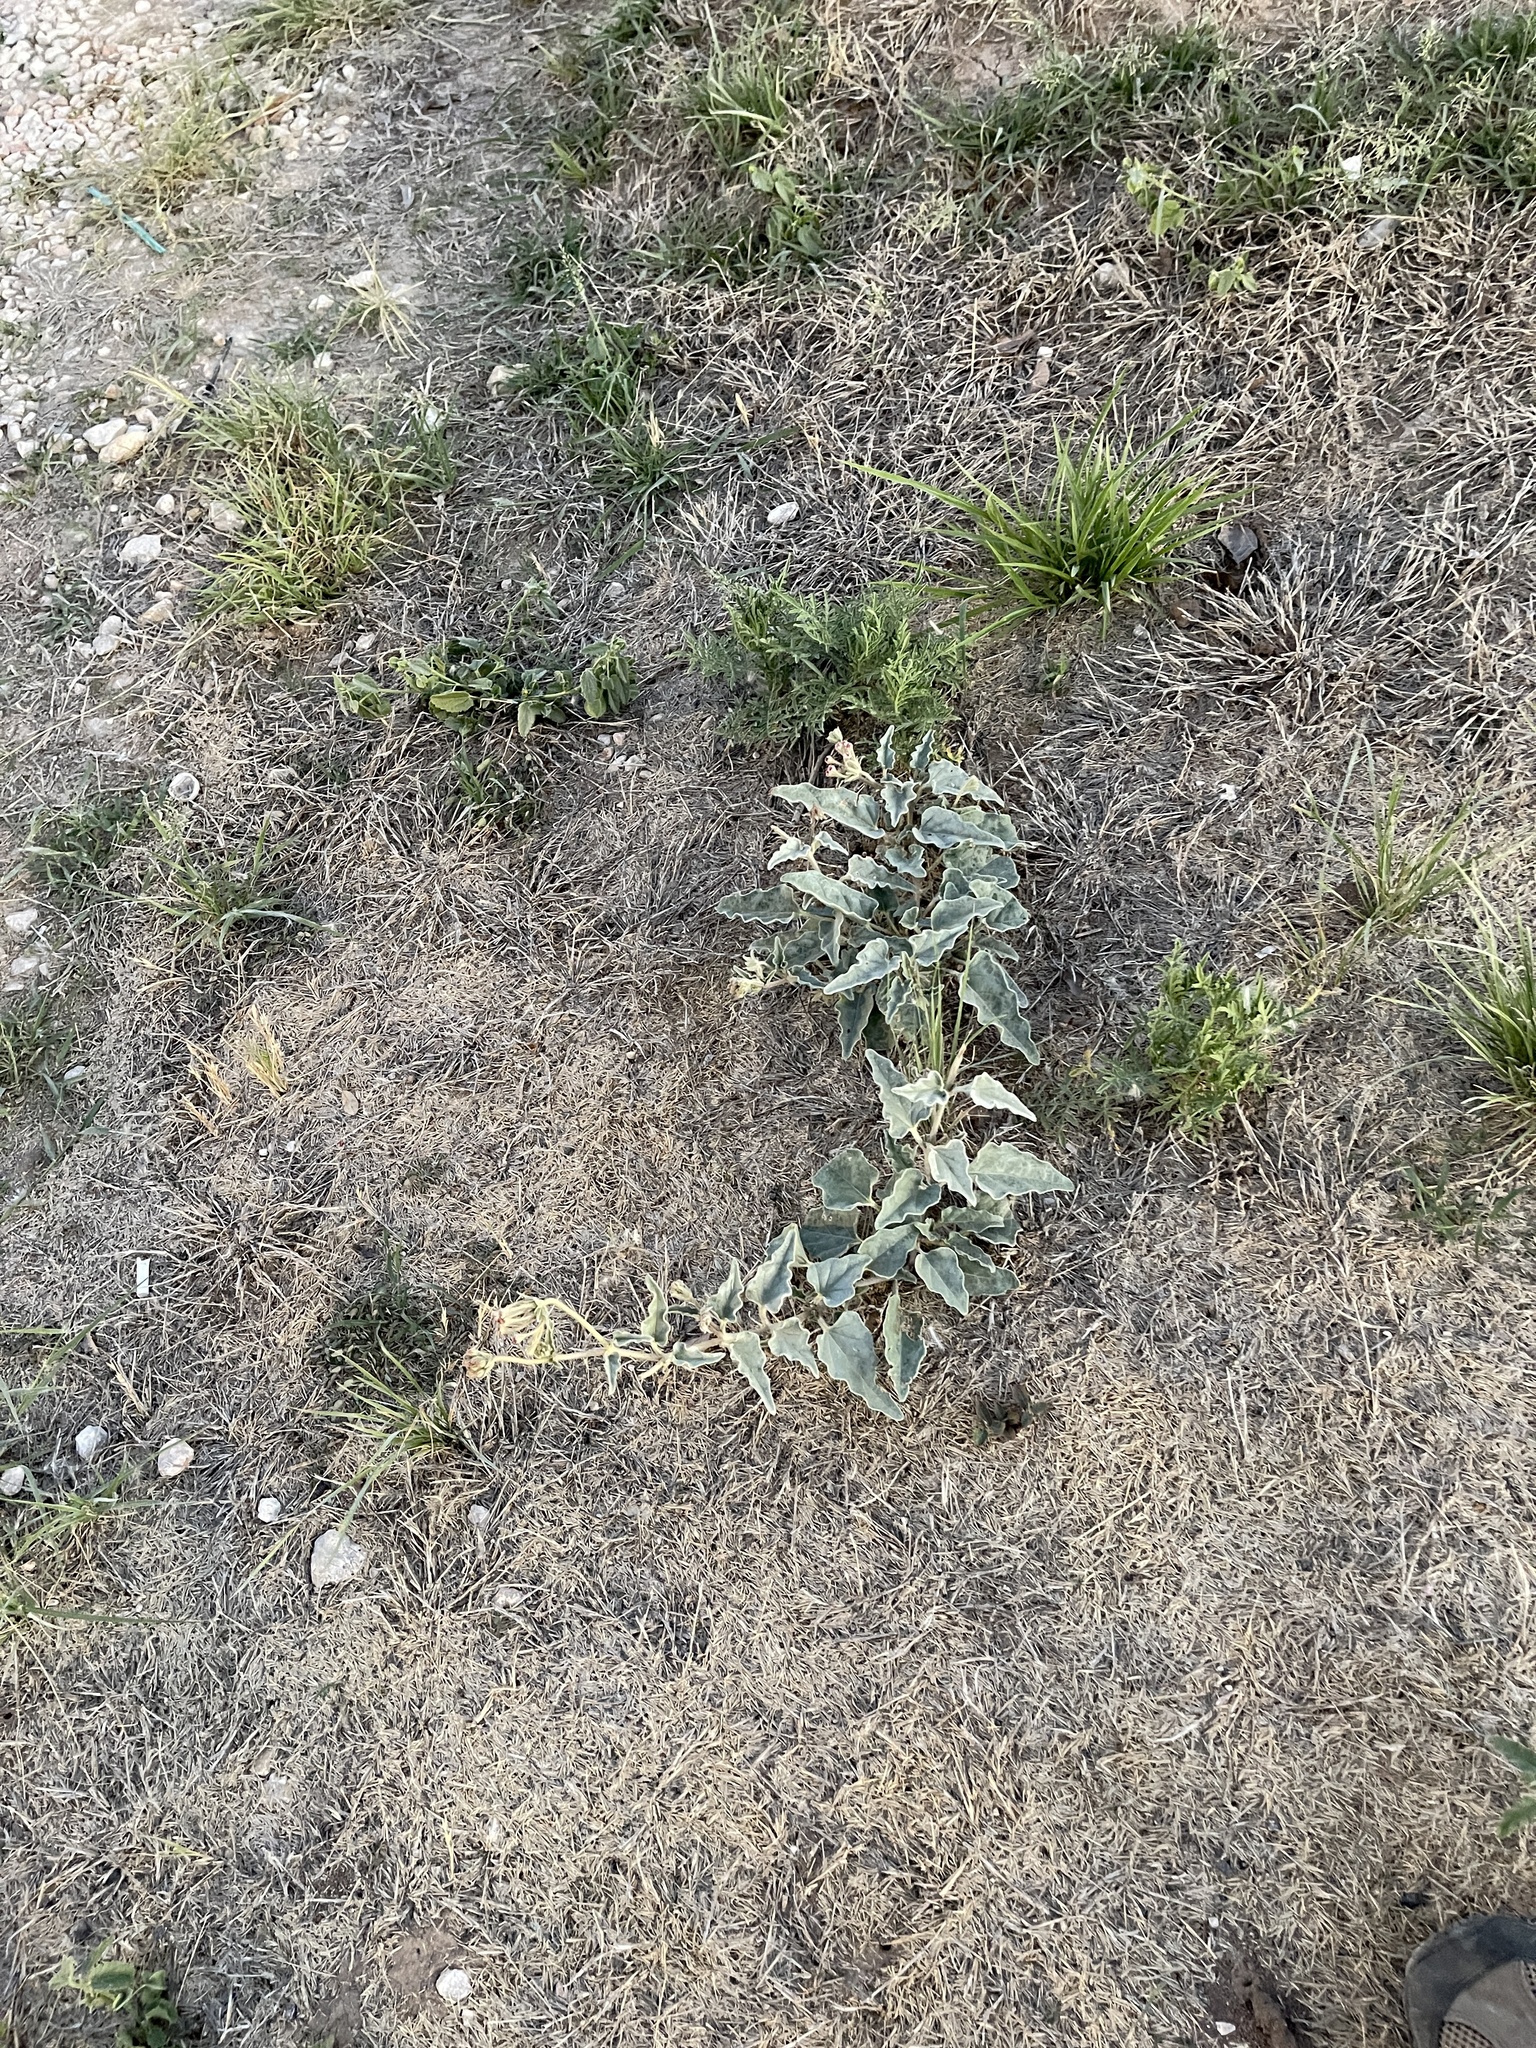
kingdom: Plantae
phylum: Tracheophyta
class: Magnoliopsida
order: Caryophyllales
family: Nyctaginaceae
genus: Nyctaginia
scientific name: Nyctaginia capitata
